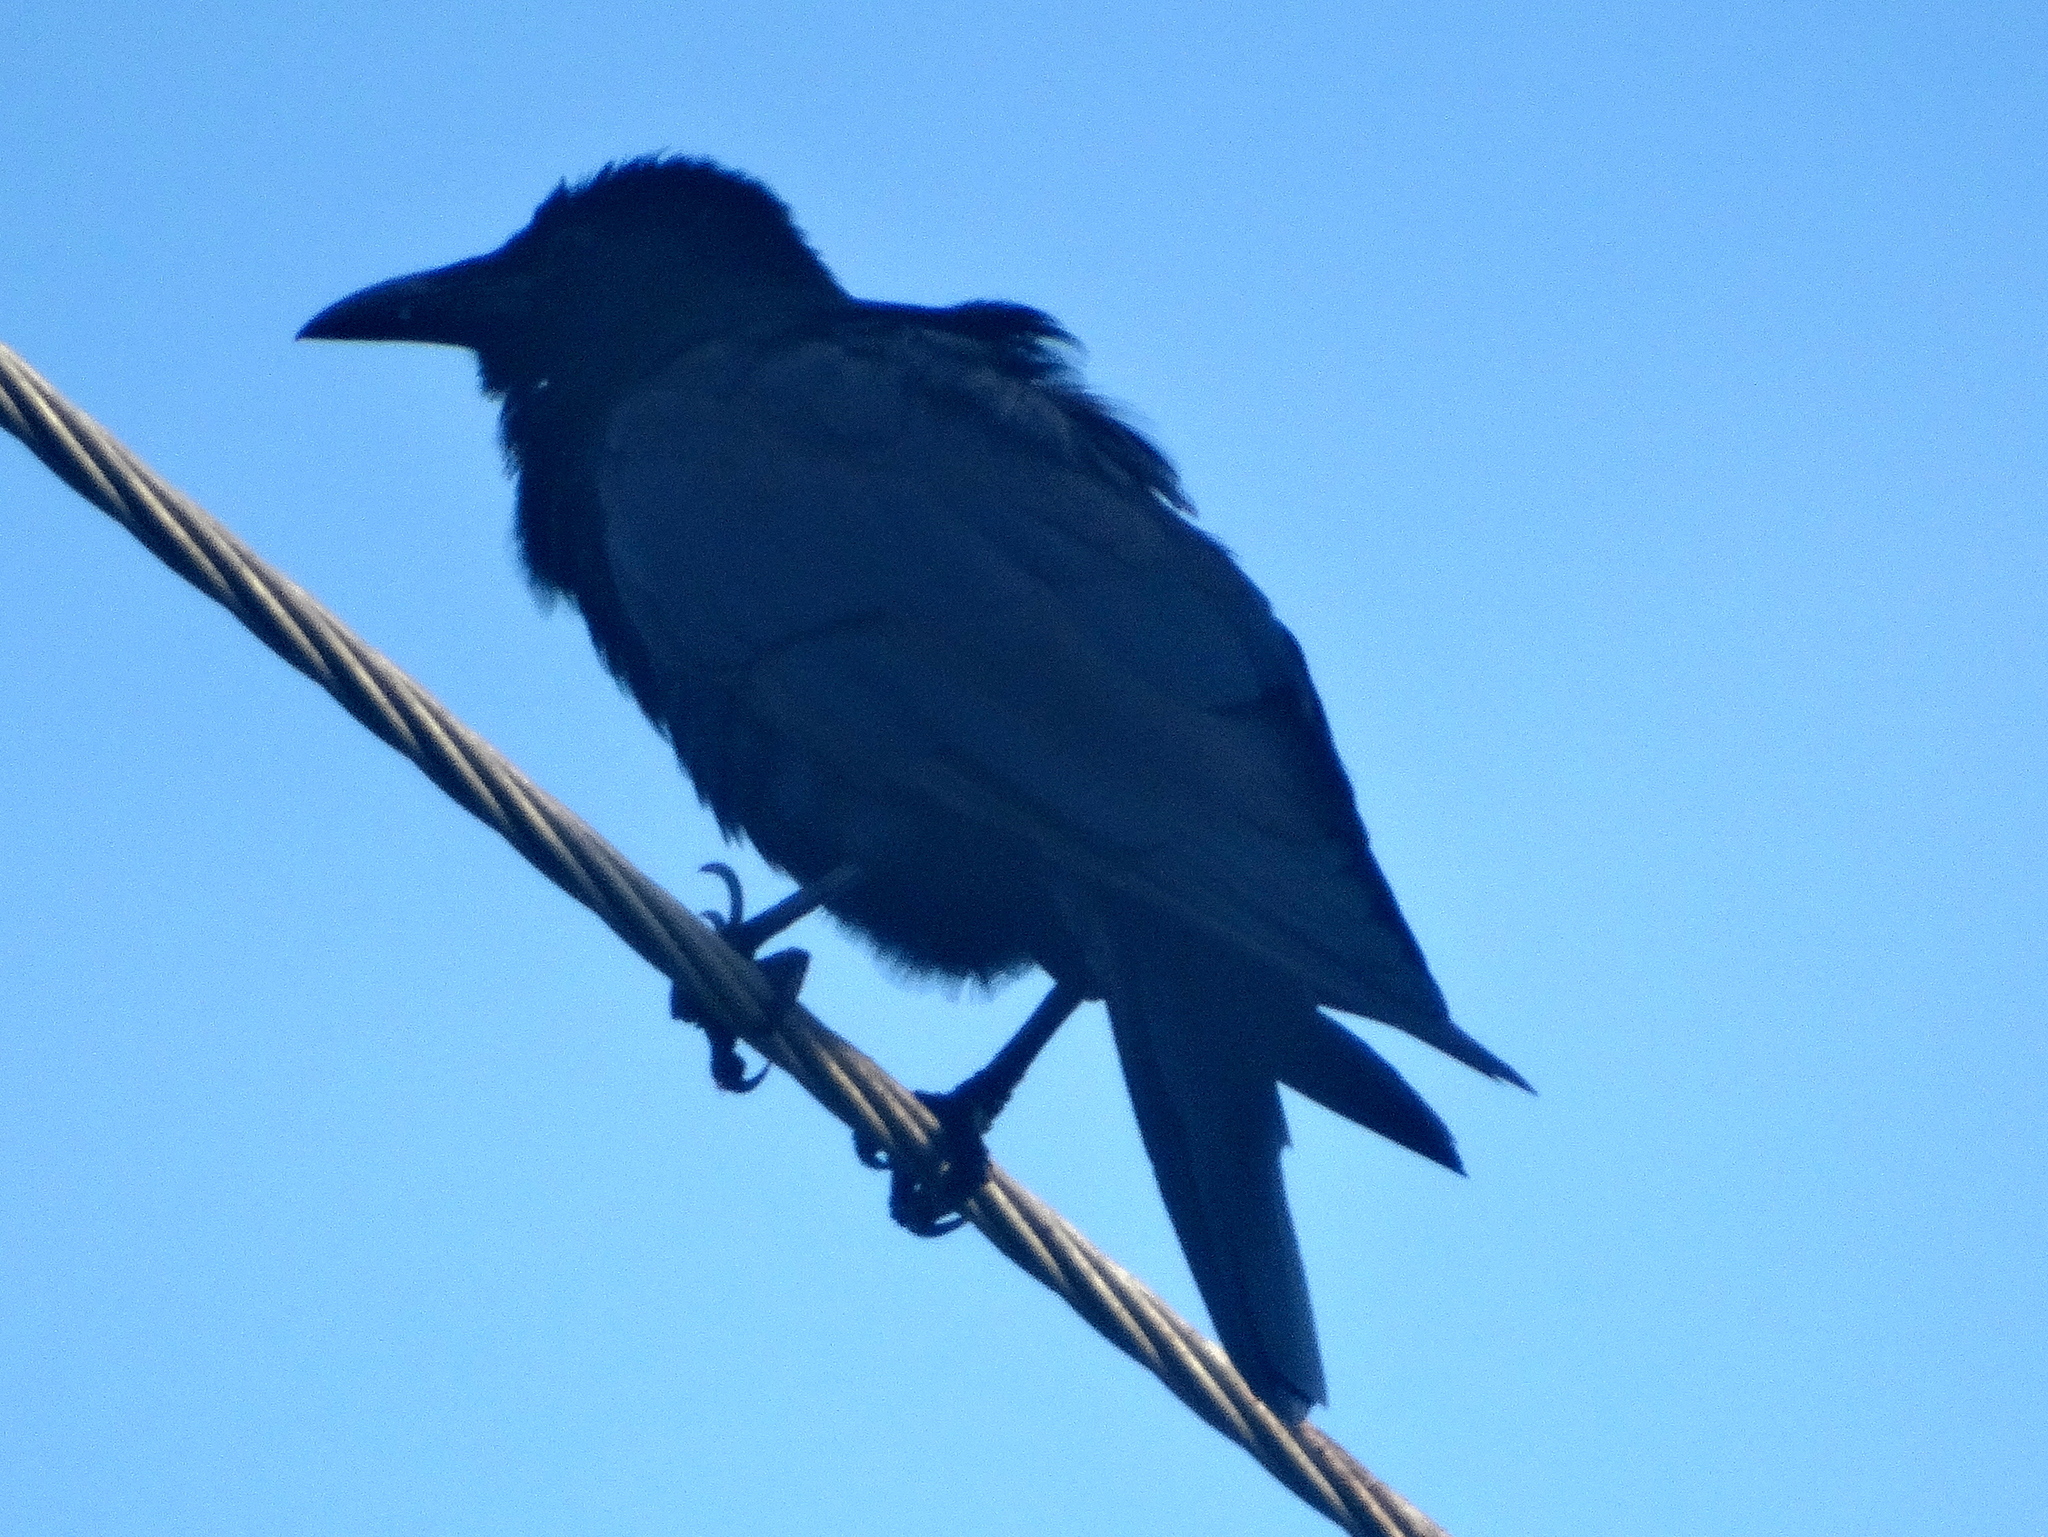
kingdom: Animalia
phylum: Chordata
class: Aves
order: Passeriformes
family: Corvidae
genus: Corvus
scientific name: Corvus sinaloae
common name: Sinaloa crow
